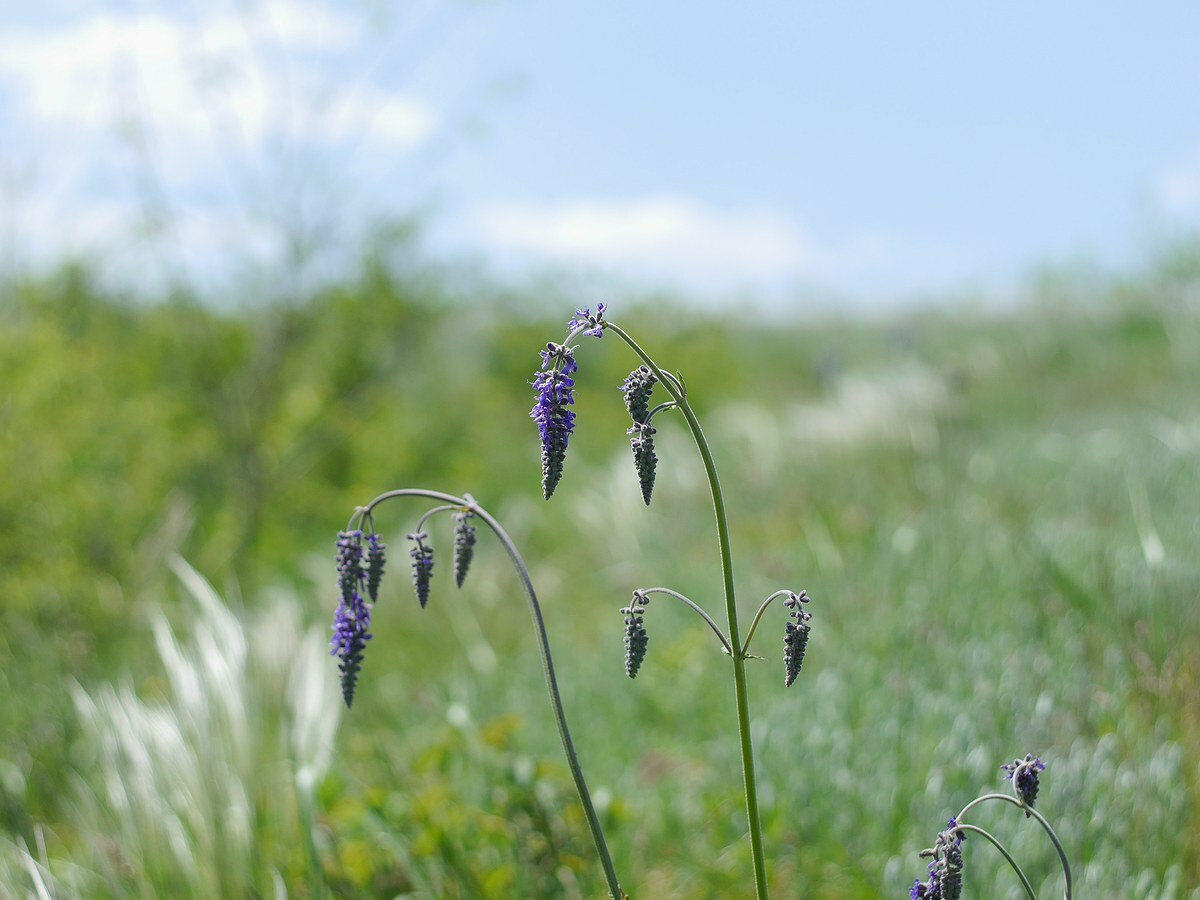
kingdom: Plantae
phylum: Tracheophyta
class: Magnoliopsida
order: Lamiales
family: Lamiaceae
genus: Salvia
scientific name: Salvia nutans
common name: Nodding sage
